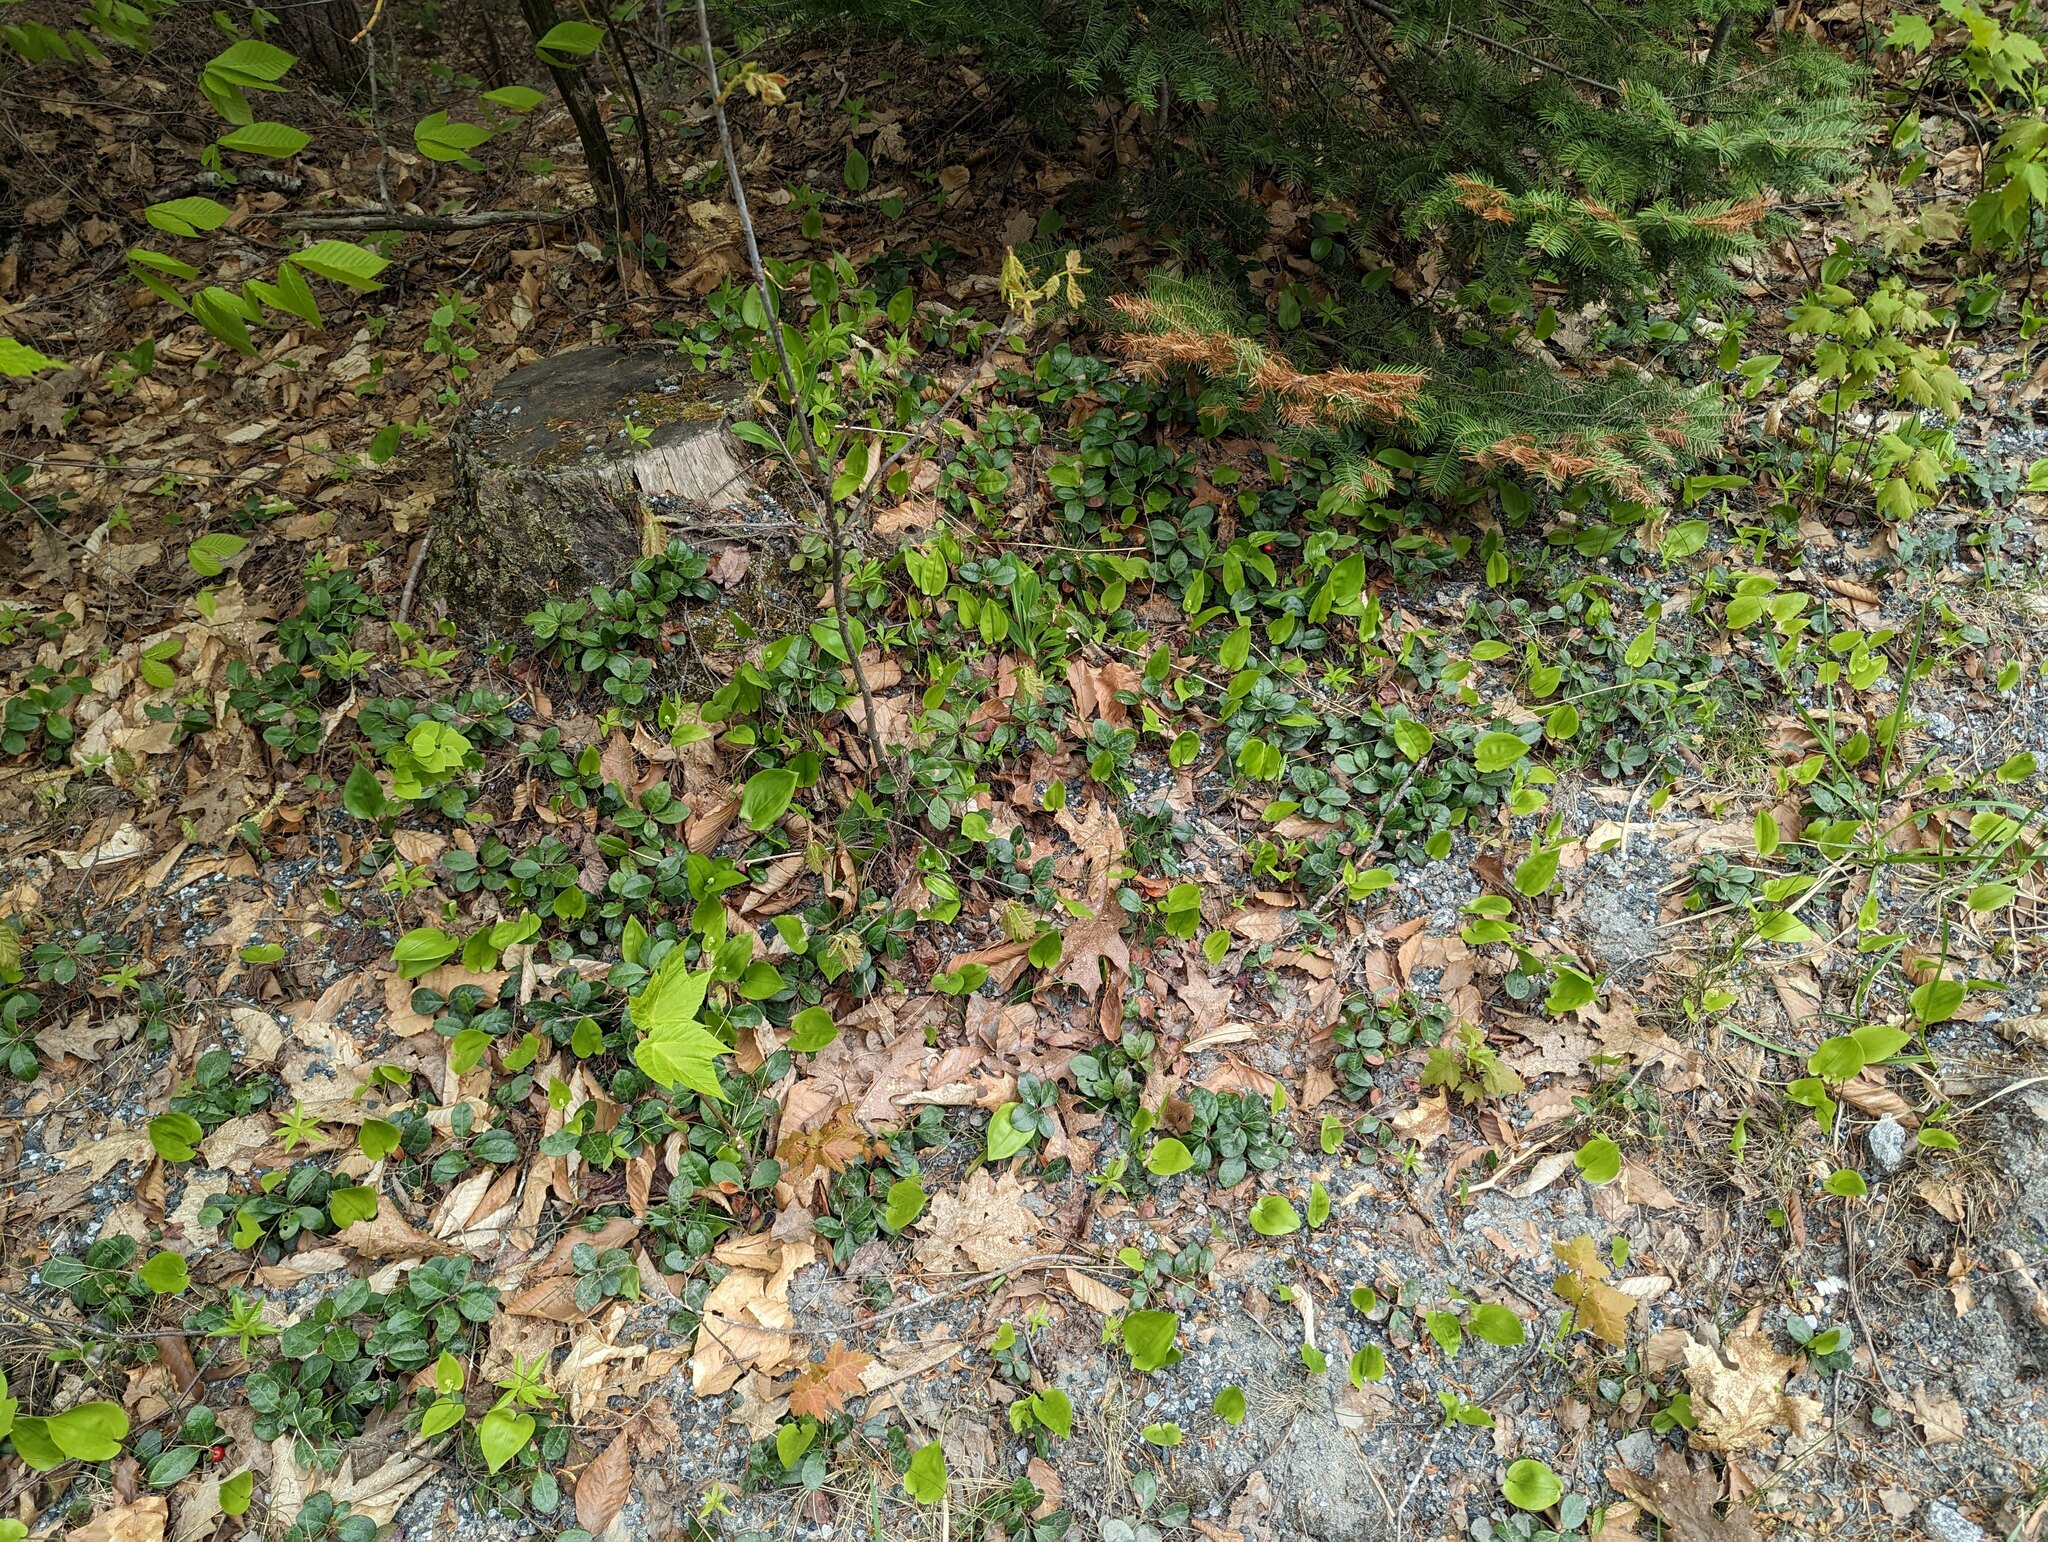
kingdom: Plantae
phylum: Tracheophyta
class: Magnoliopsida
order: Ericales
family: Ericaceae
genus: Gaultheria
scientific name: Gaultheria procumbens
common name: Checkerberry
